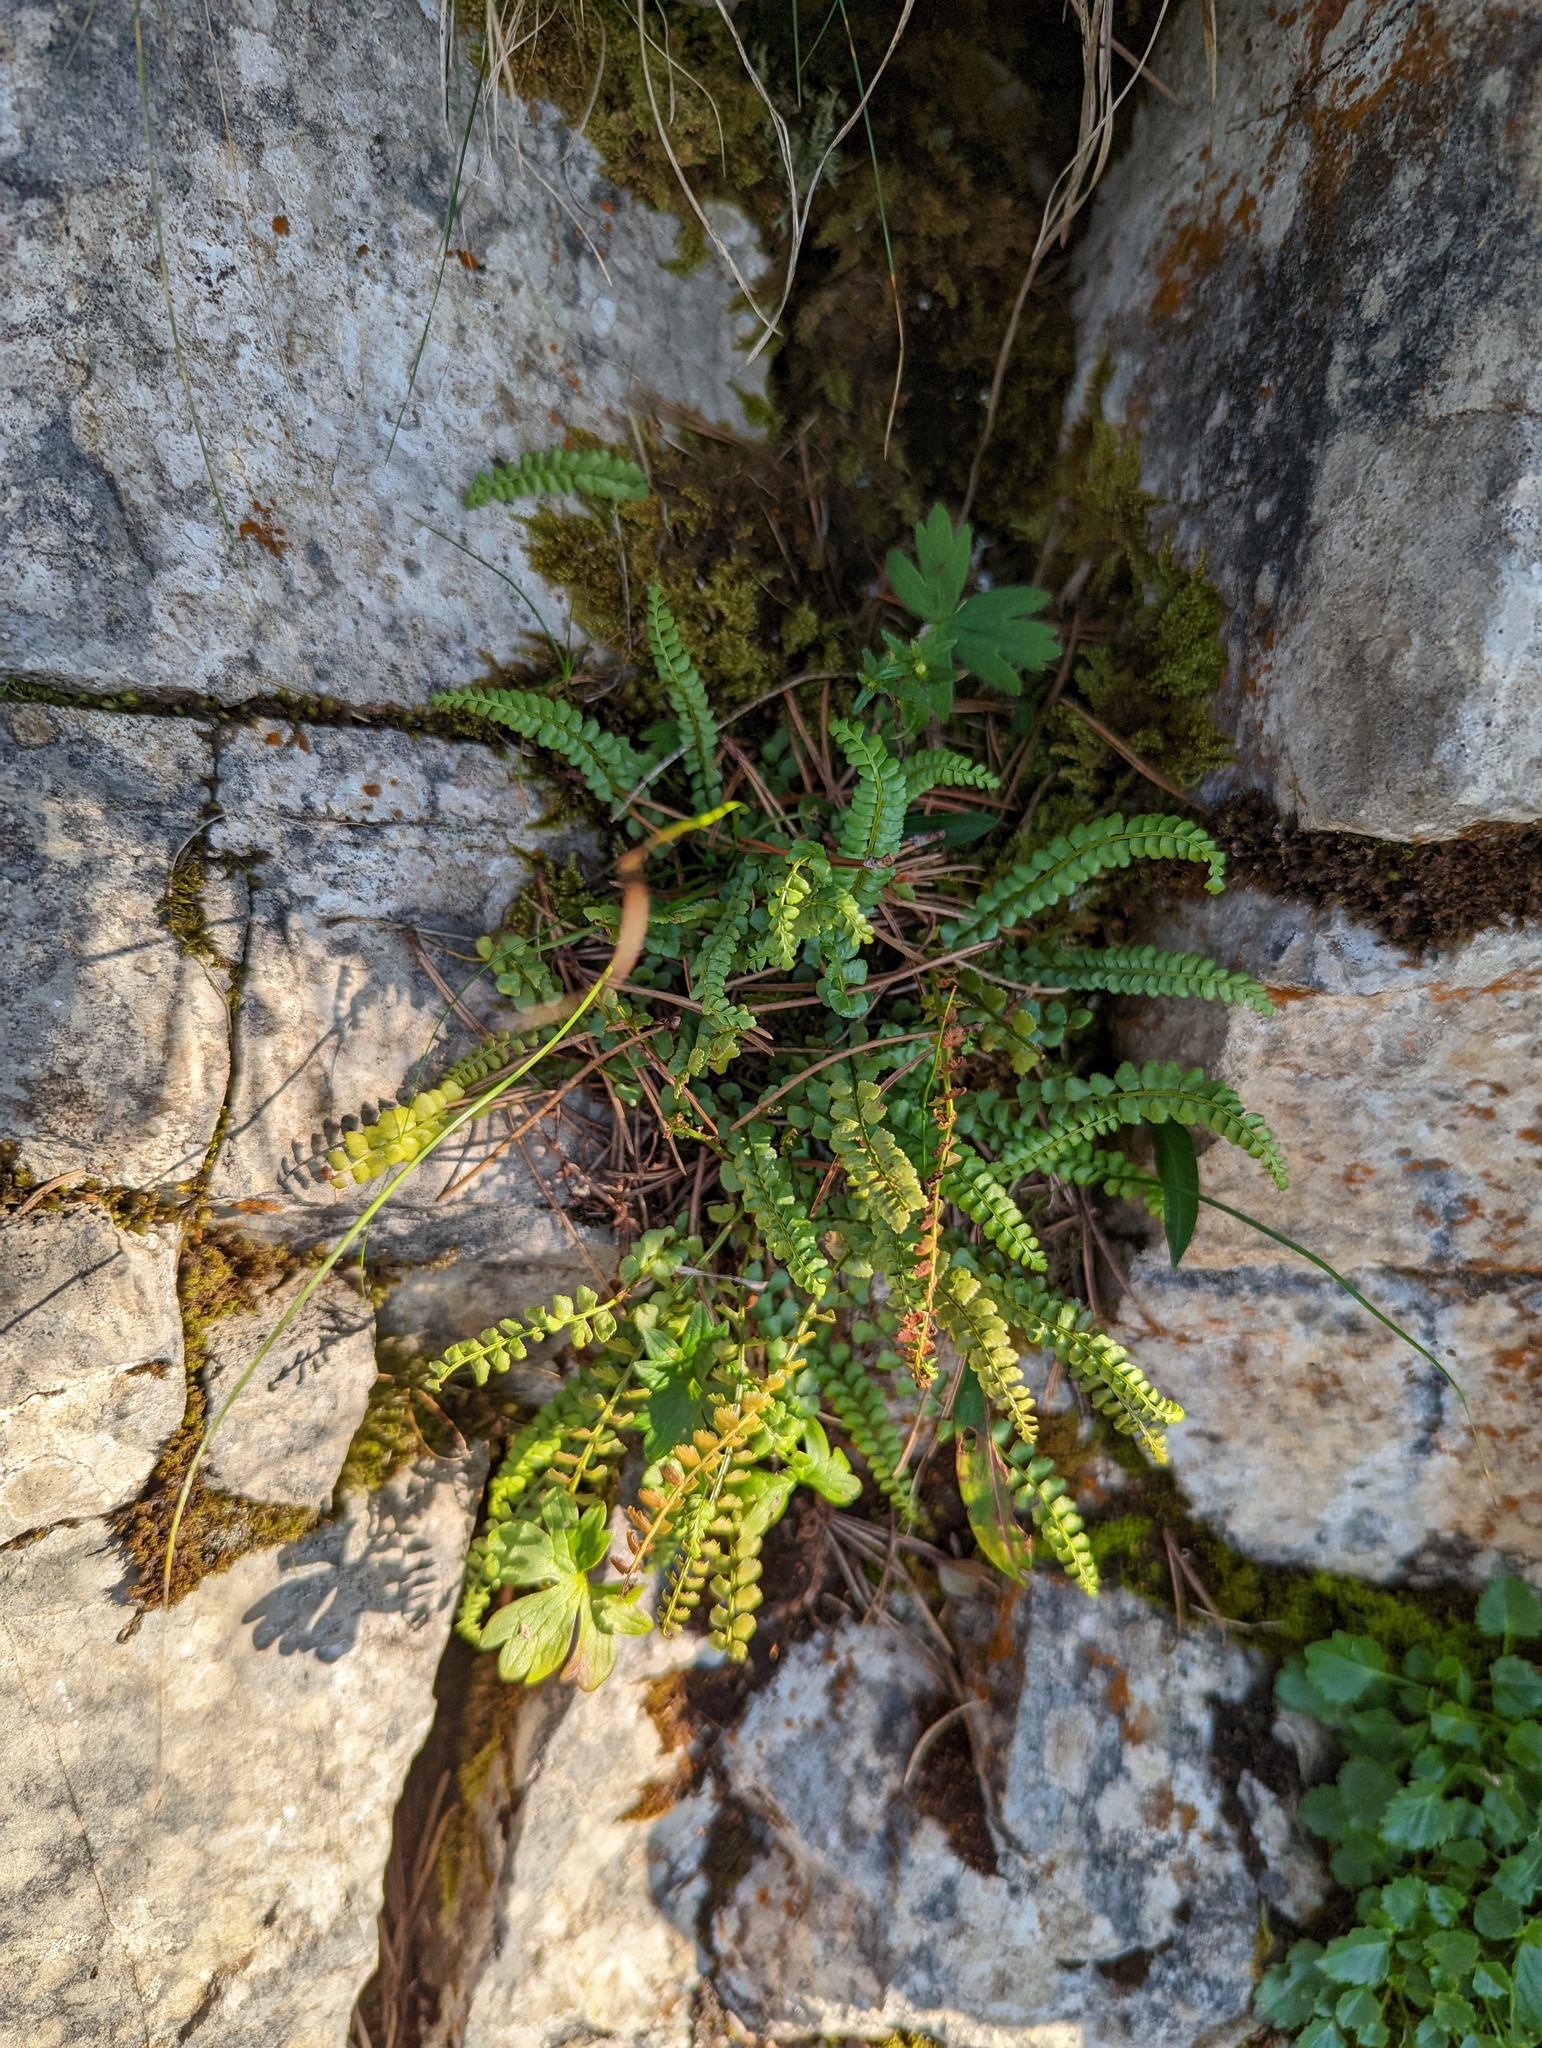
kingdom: Plantae
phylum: Tracheophyta
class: Polypodiopsida
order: Polypodiales
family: Aspleniaceae
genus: Asplenium
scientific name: Asplenium viride
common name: Green spleenwort
